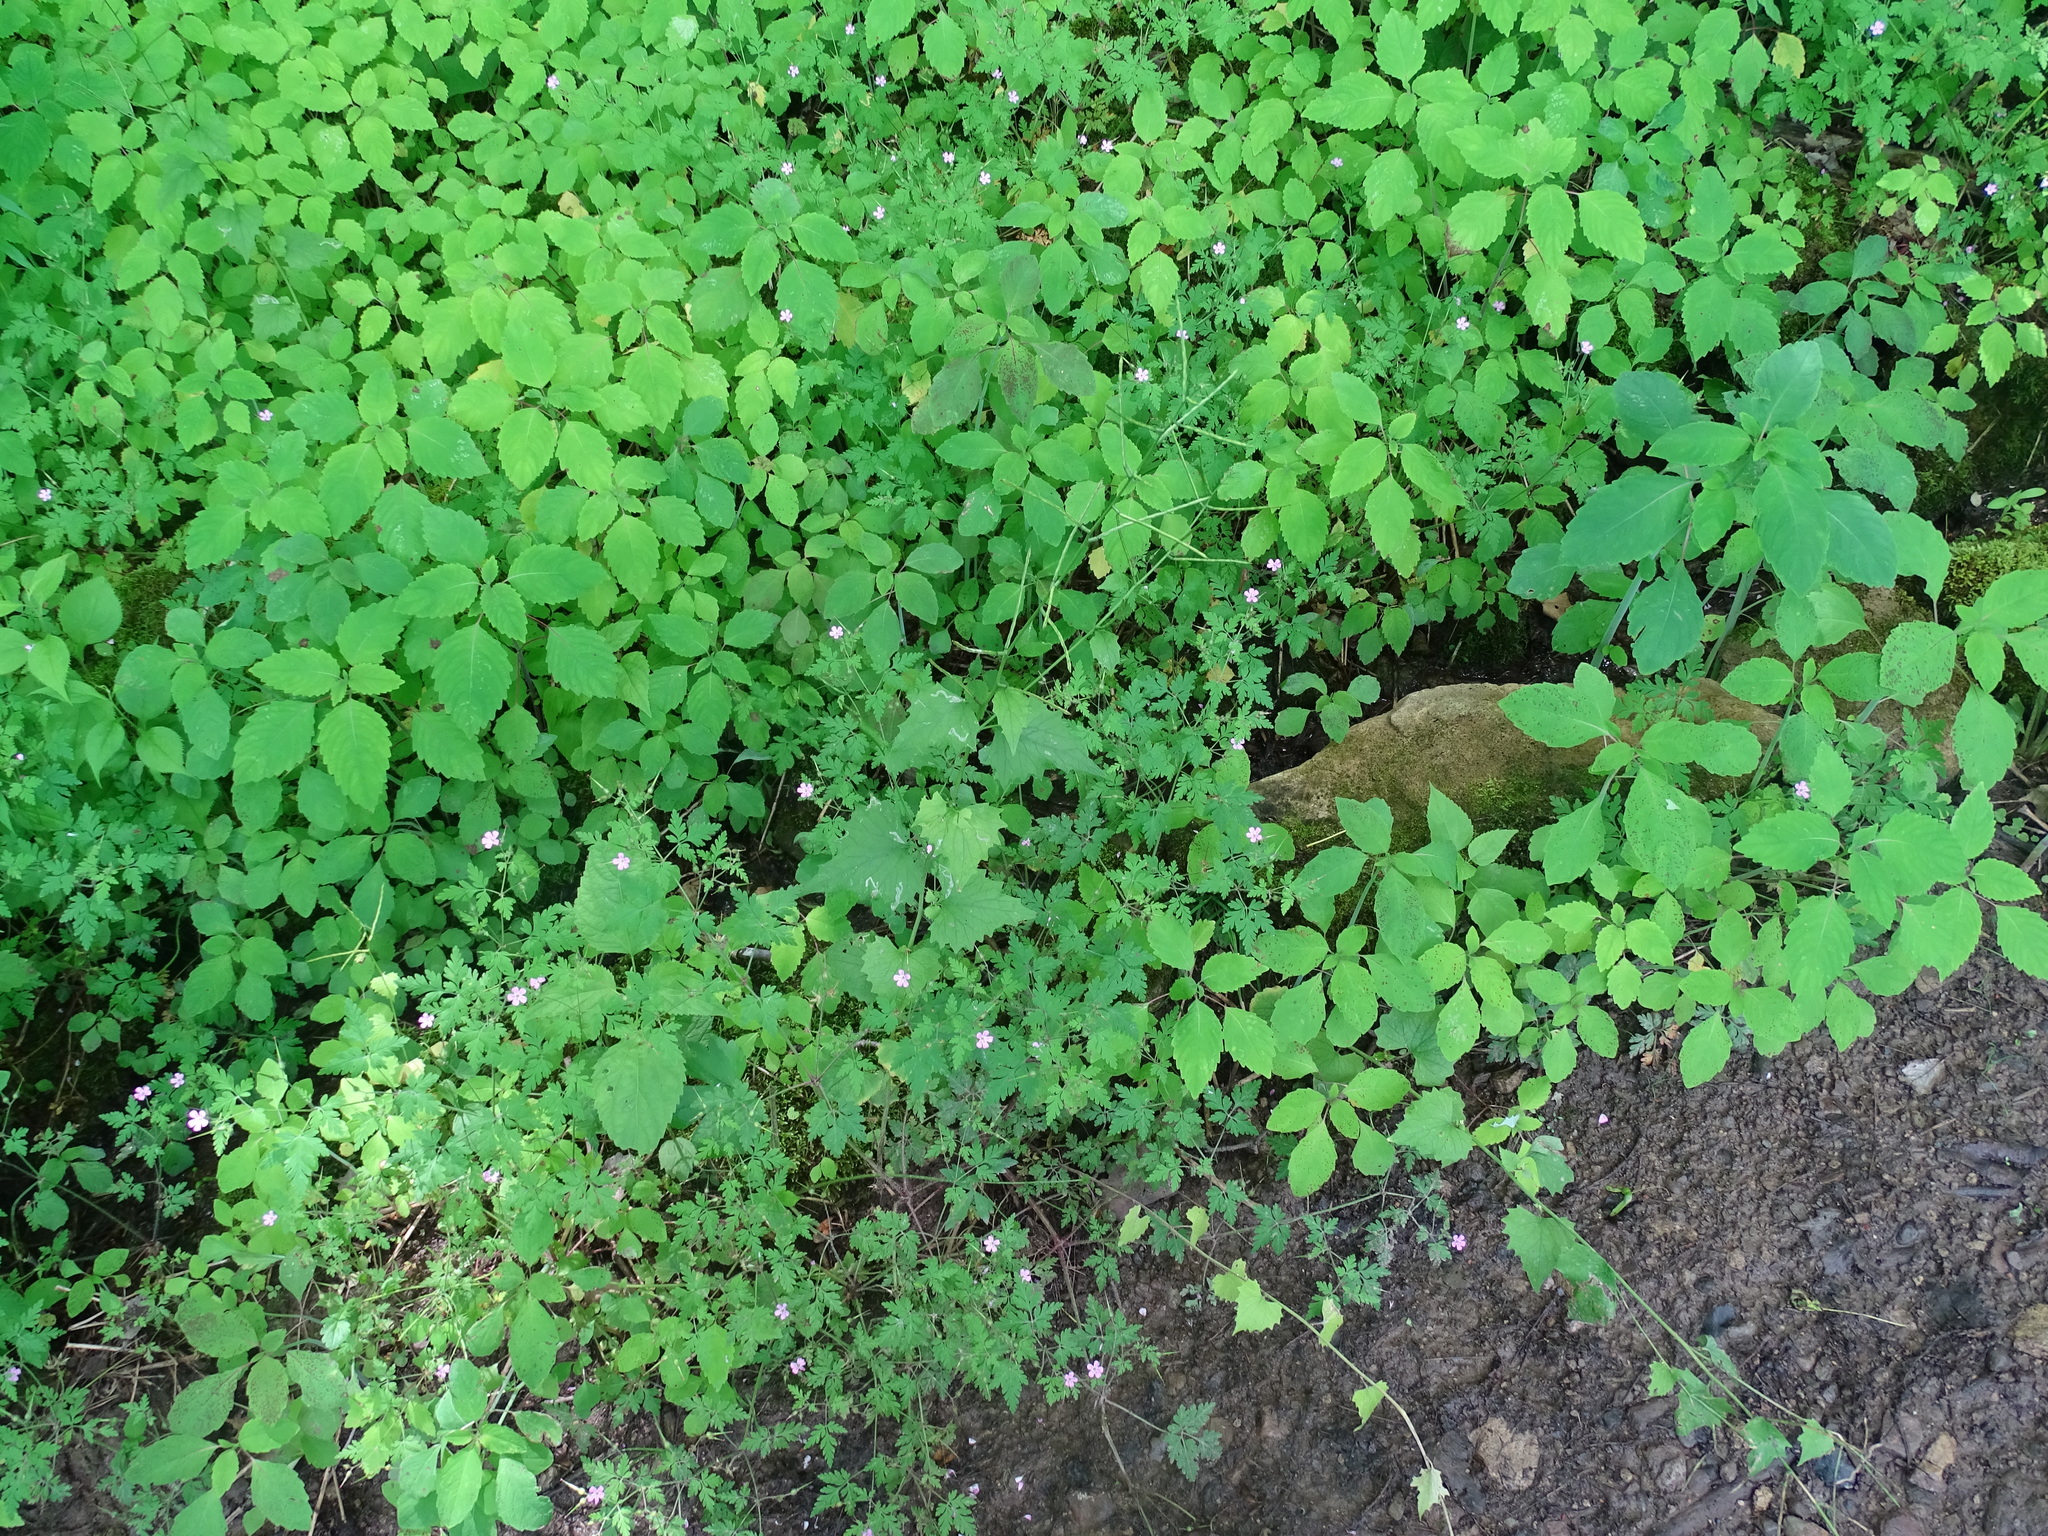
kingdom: Plantae
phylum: Tracheophyta
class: Magnoliopsida
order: Brassicales
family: Brassicaceae
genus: Alliaria
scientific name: Alliaria petiolata
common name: Garlic mustard
